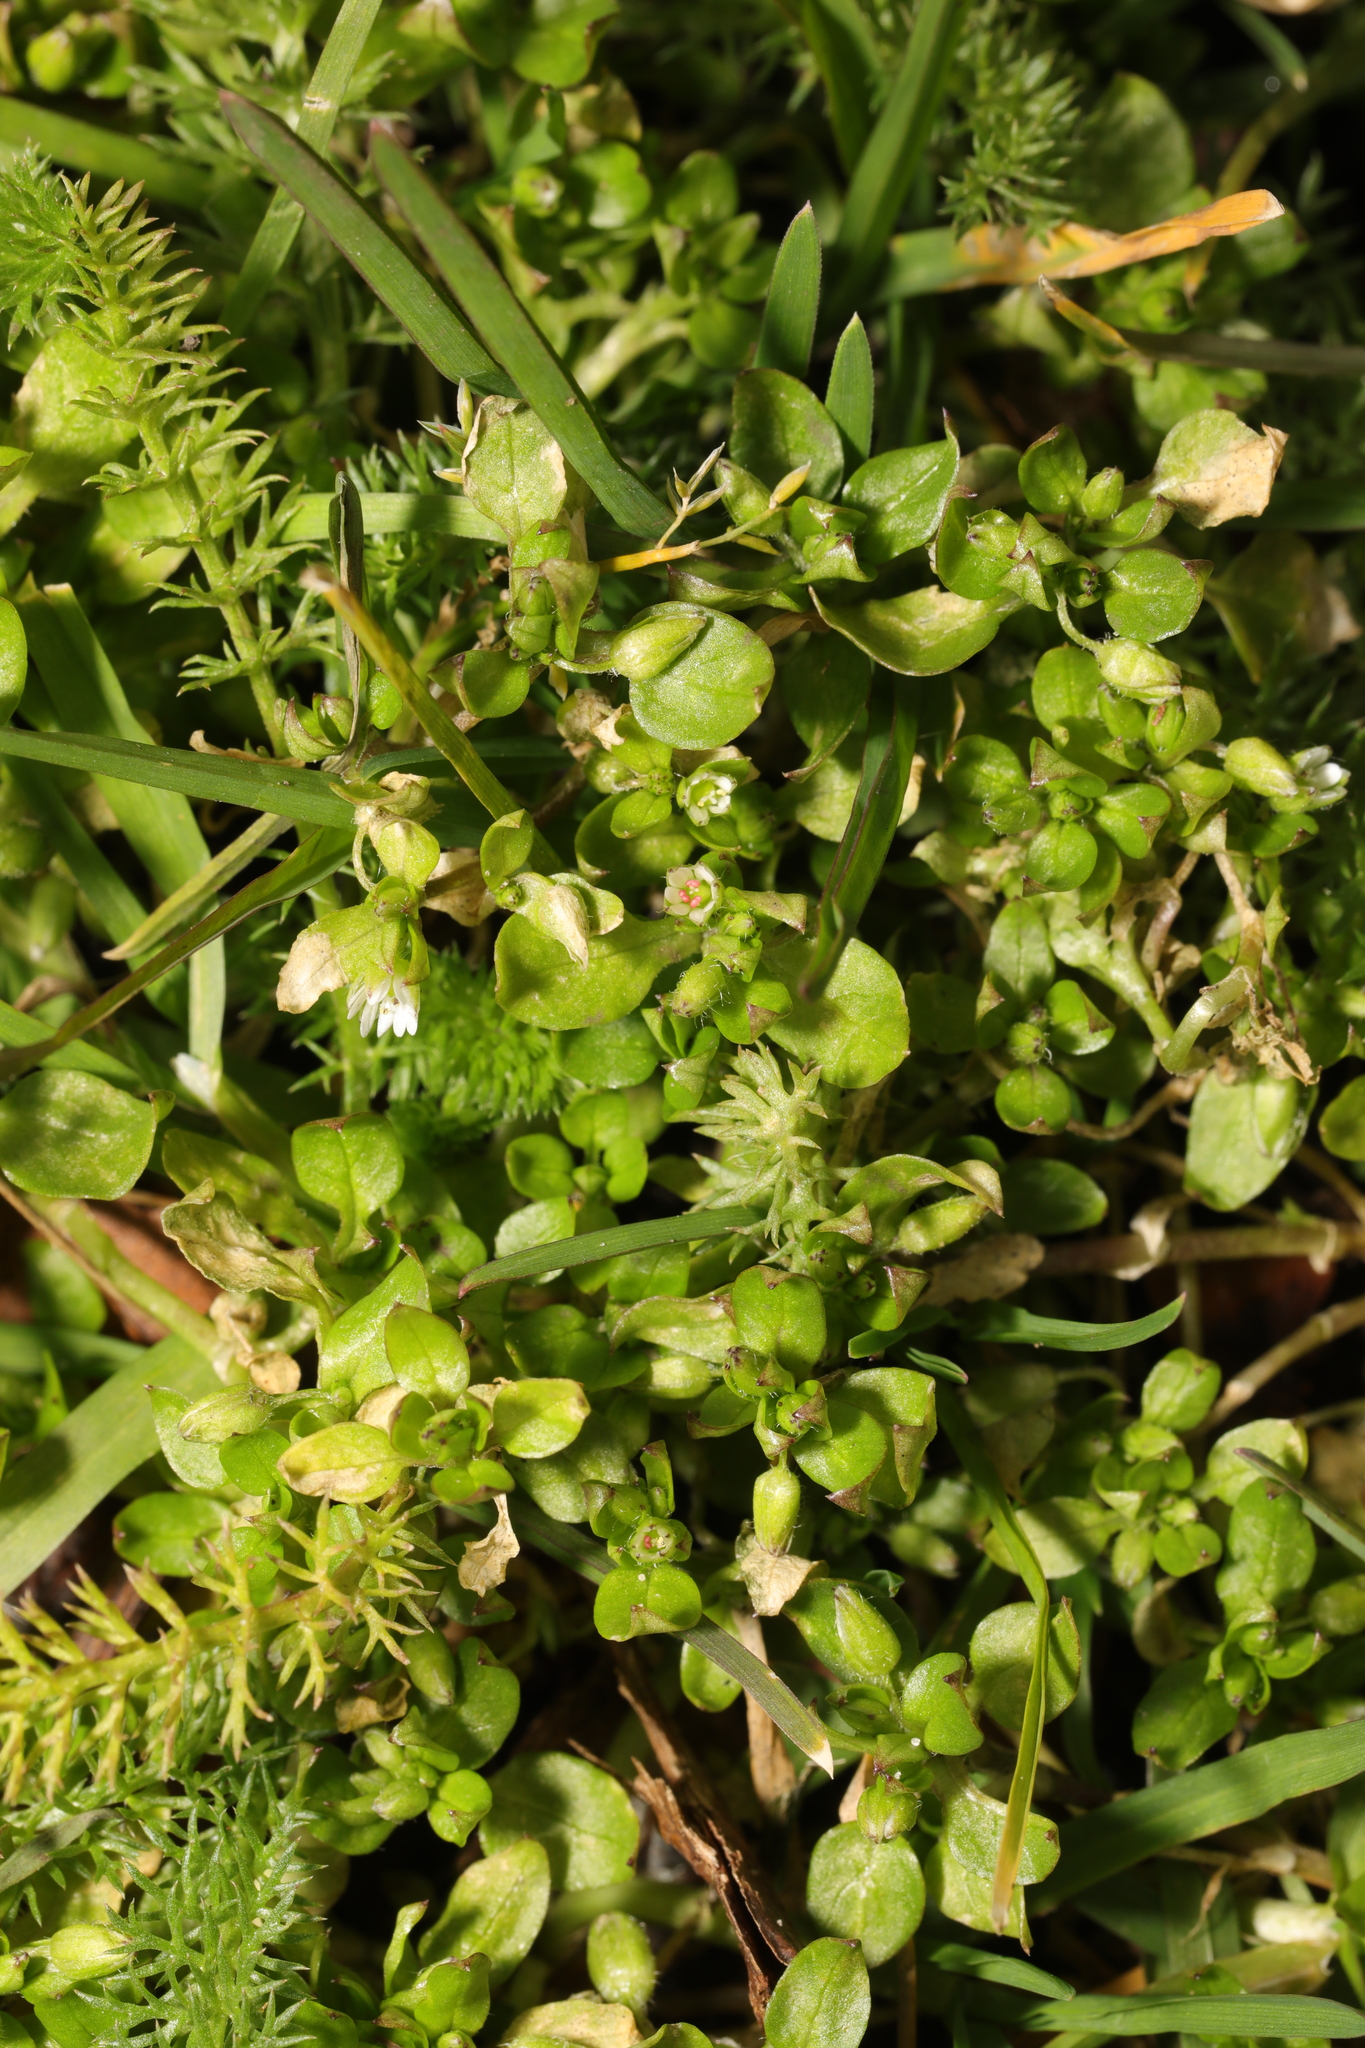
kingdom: Plantae
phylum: Tracheophyta
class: Magnoliopsida
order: Caryophyllales
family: Caryophyllaceae
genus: Stellaria
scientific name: Stellaria media
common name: Common chickweed
